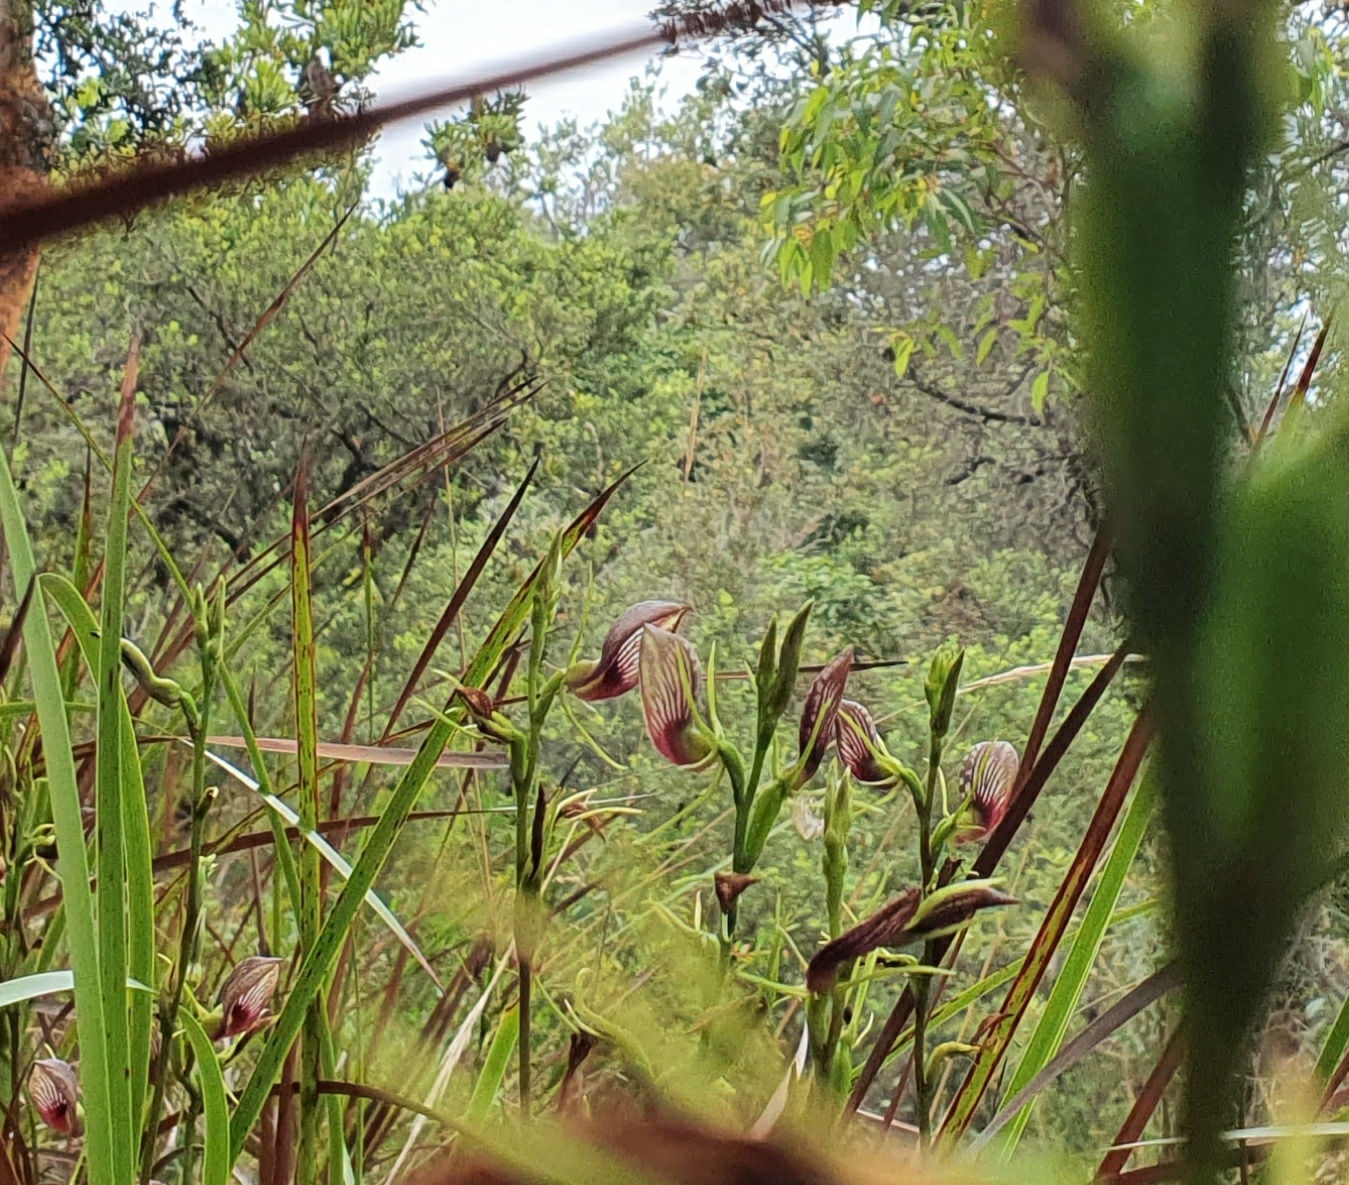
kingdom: Plantae
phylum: Tracheophyta
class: Liliopsida
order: Asparagales
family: Orchidaceae
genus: Cryptostylis
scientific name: Cryptostylis erecta
